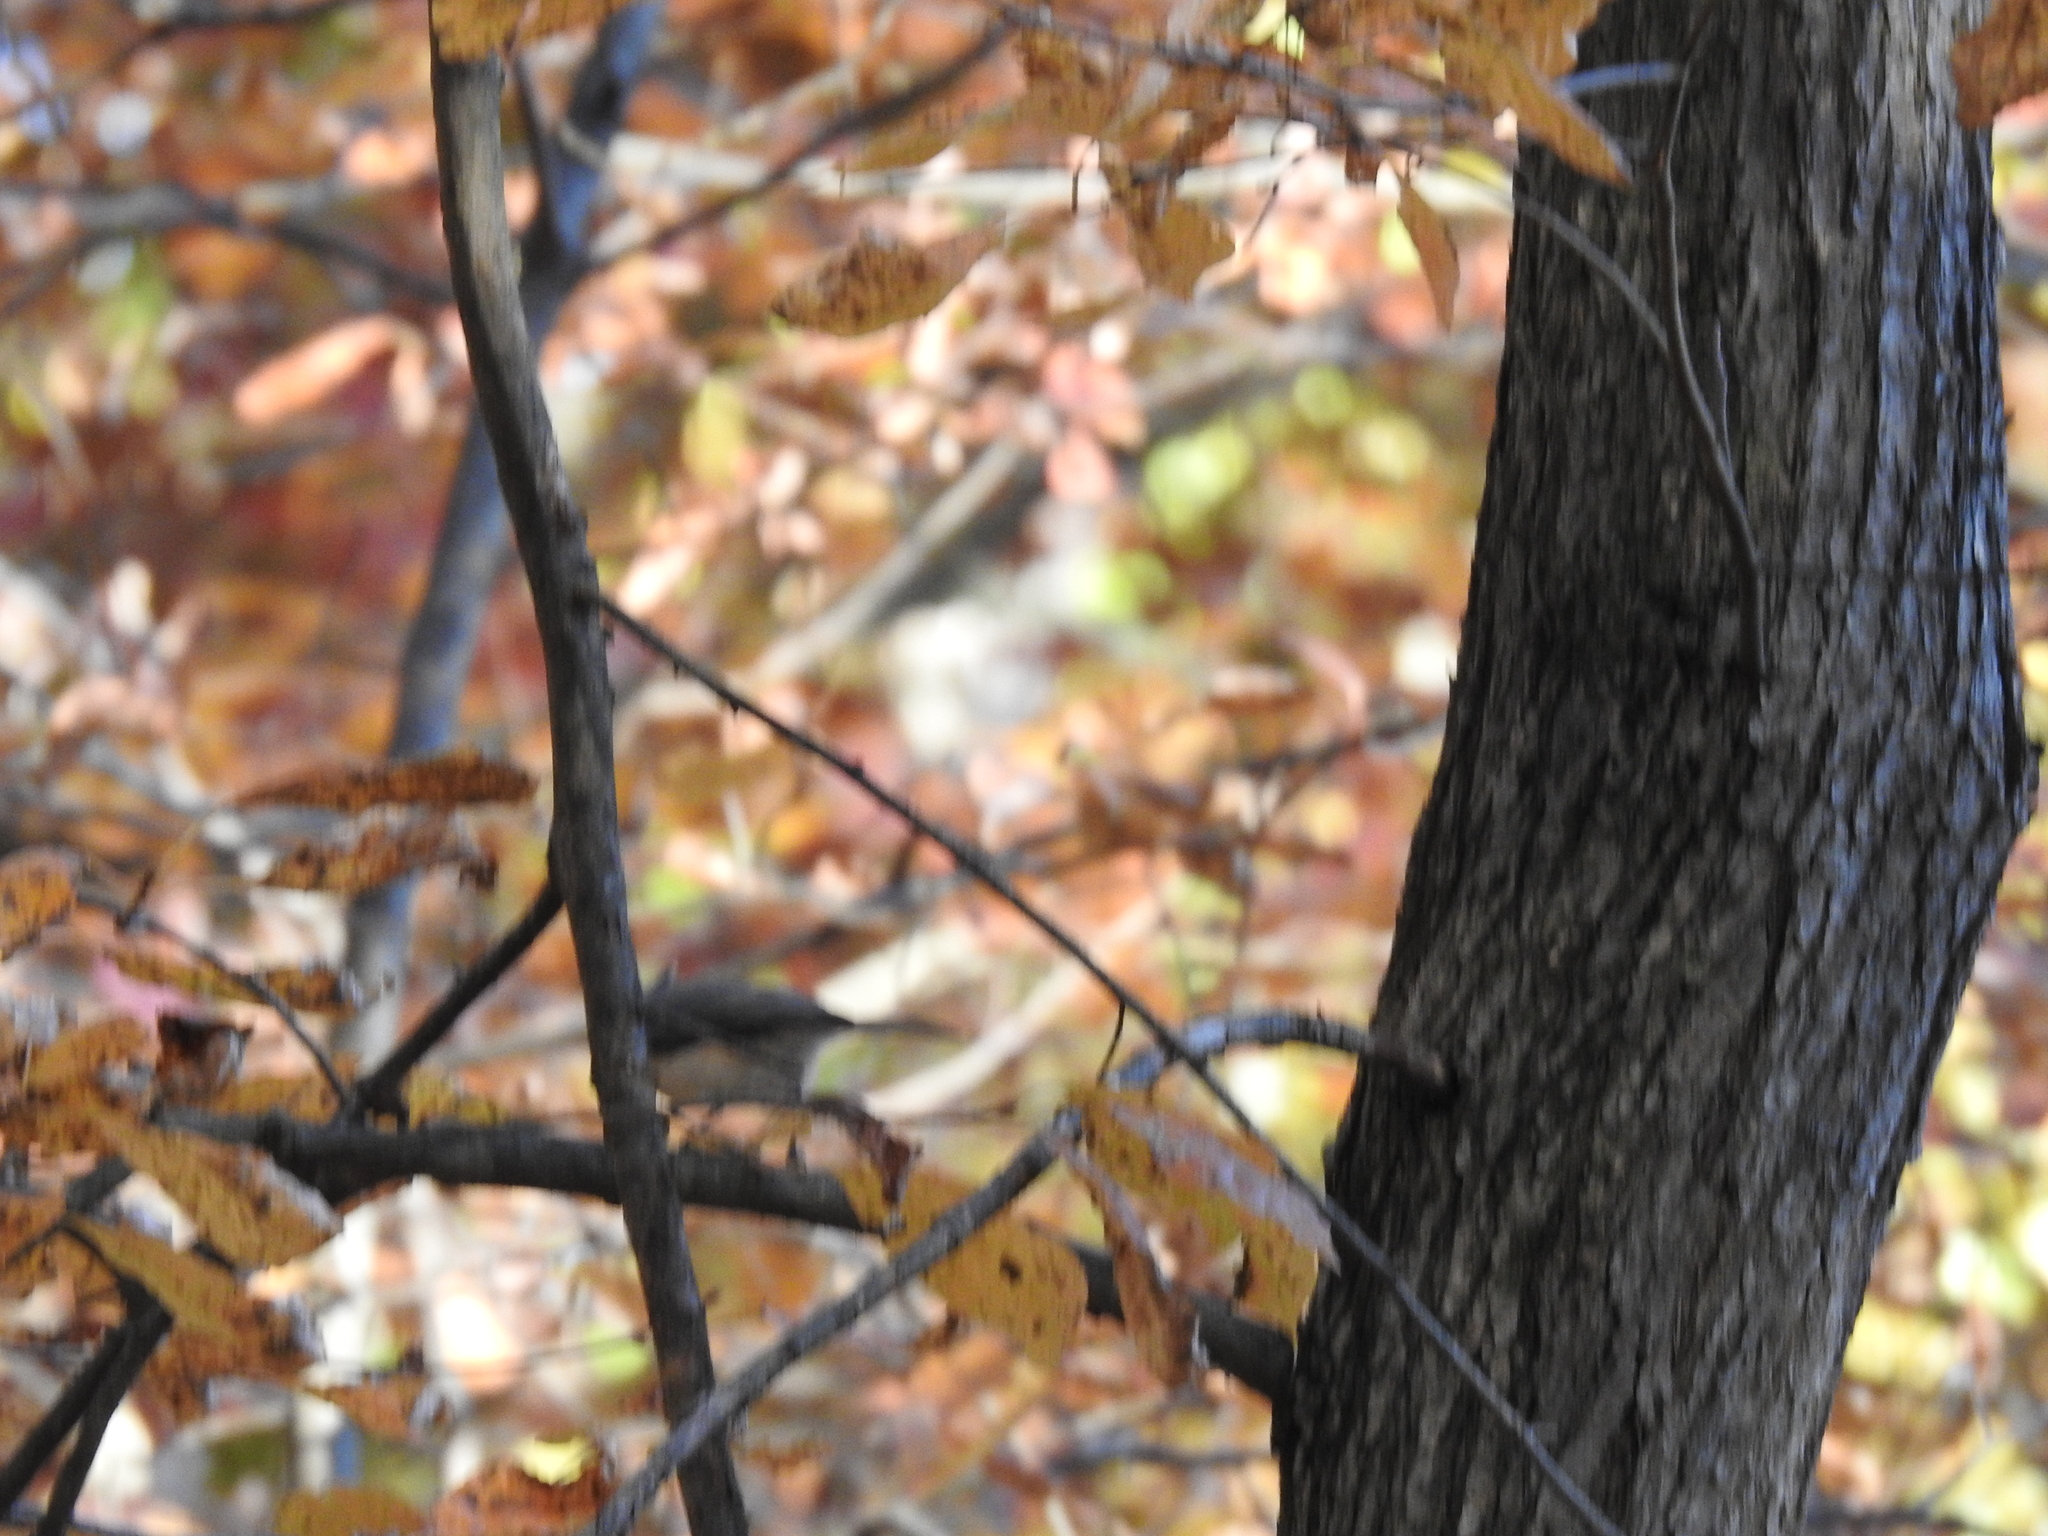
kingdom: Animalia
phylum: Chordata
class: Aves
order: Passeriformes
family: Paridae
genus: Baeolophus
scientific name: Baeolophus bicolor
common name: Tufted titmouse
